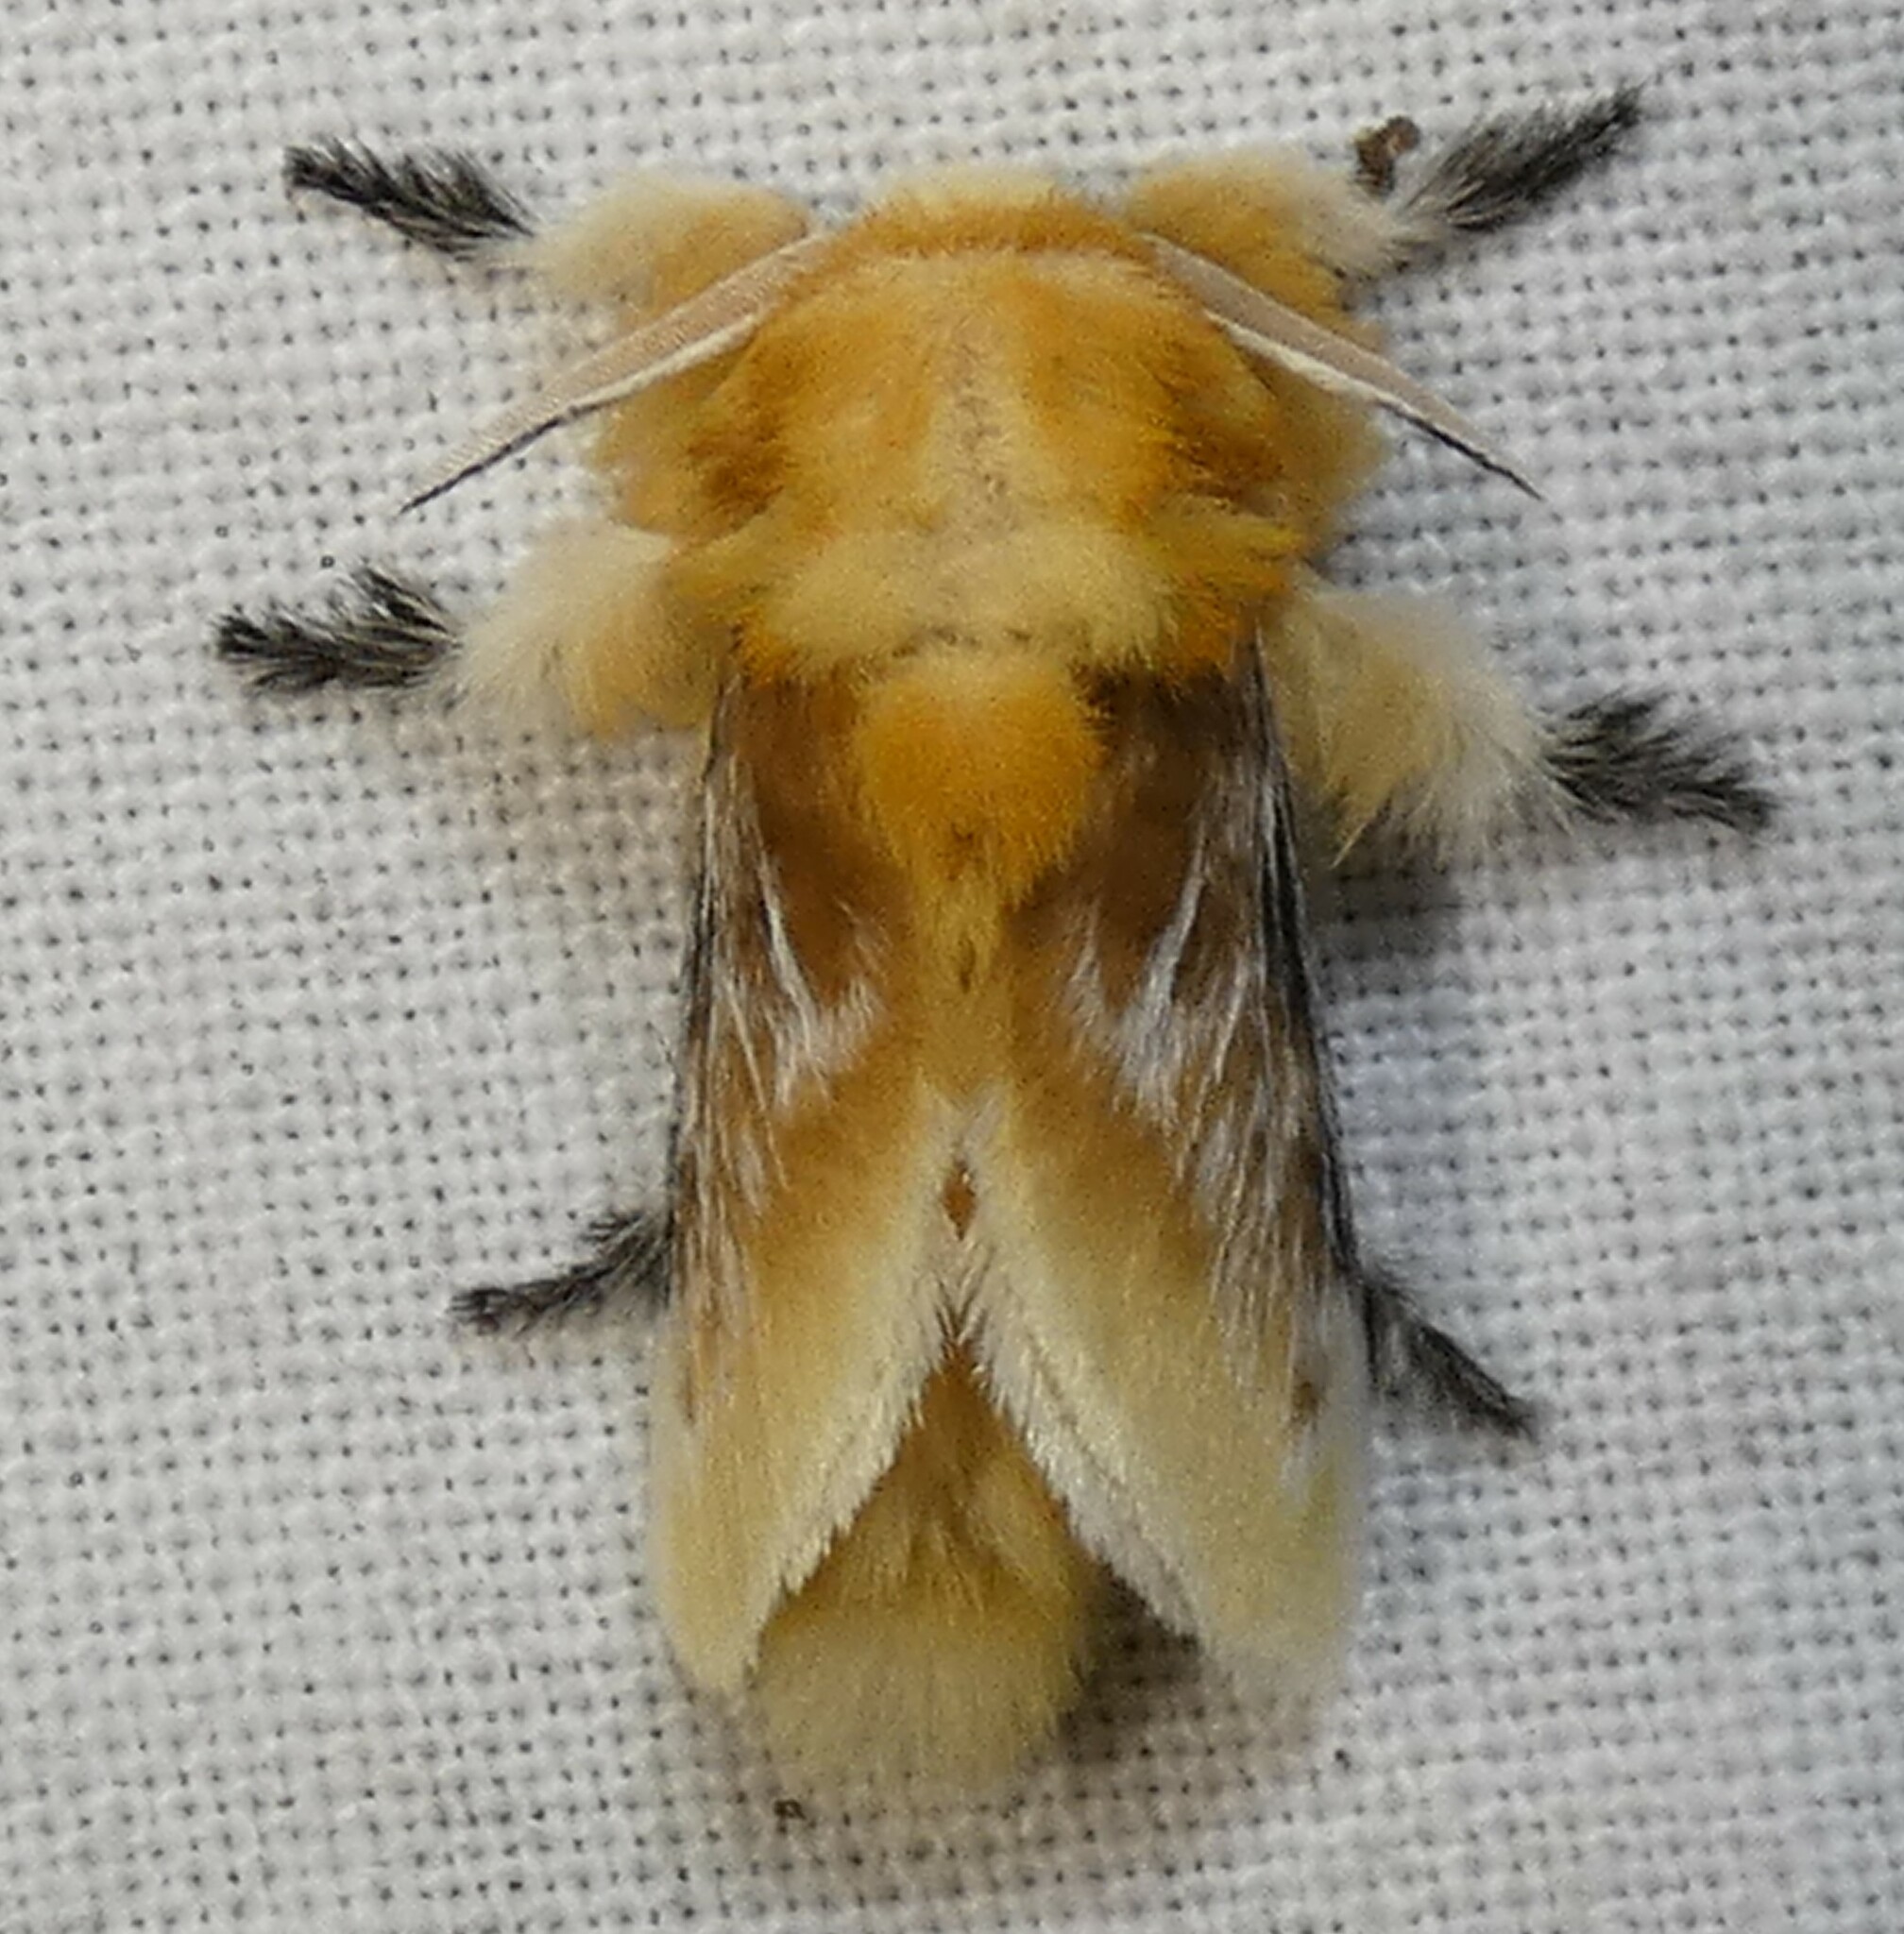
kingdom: Animalia
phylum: Arthropoda
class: Insecta
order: Lepidoptera
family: Megalopygidae
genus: Megalopyge
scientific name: Megalopyge opercularis
